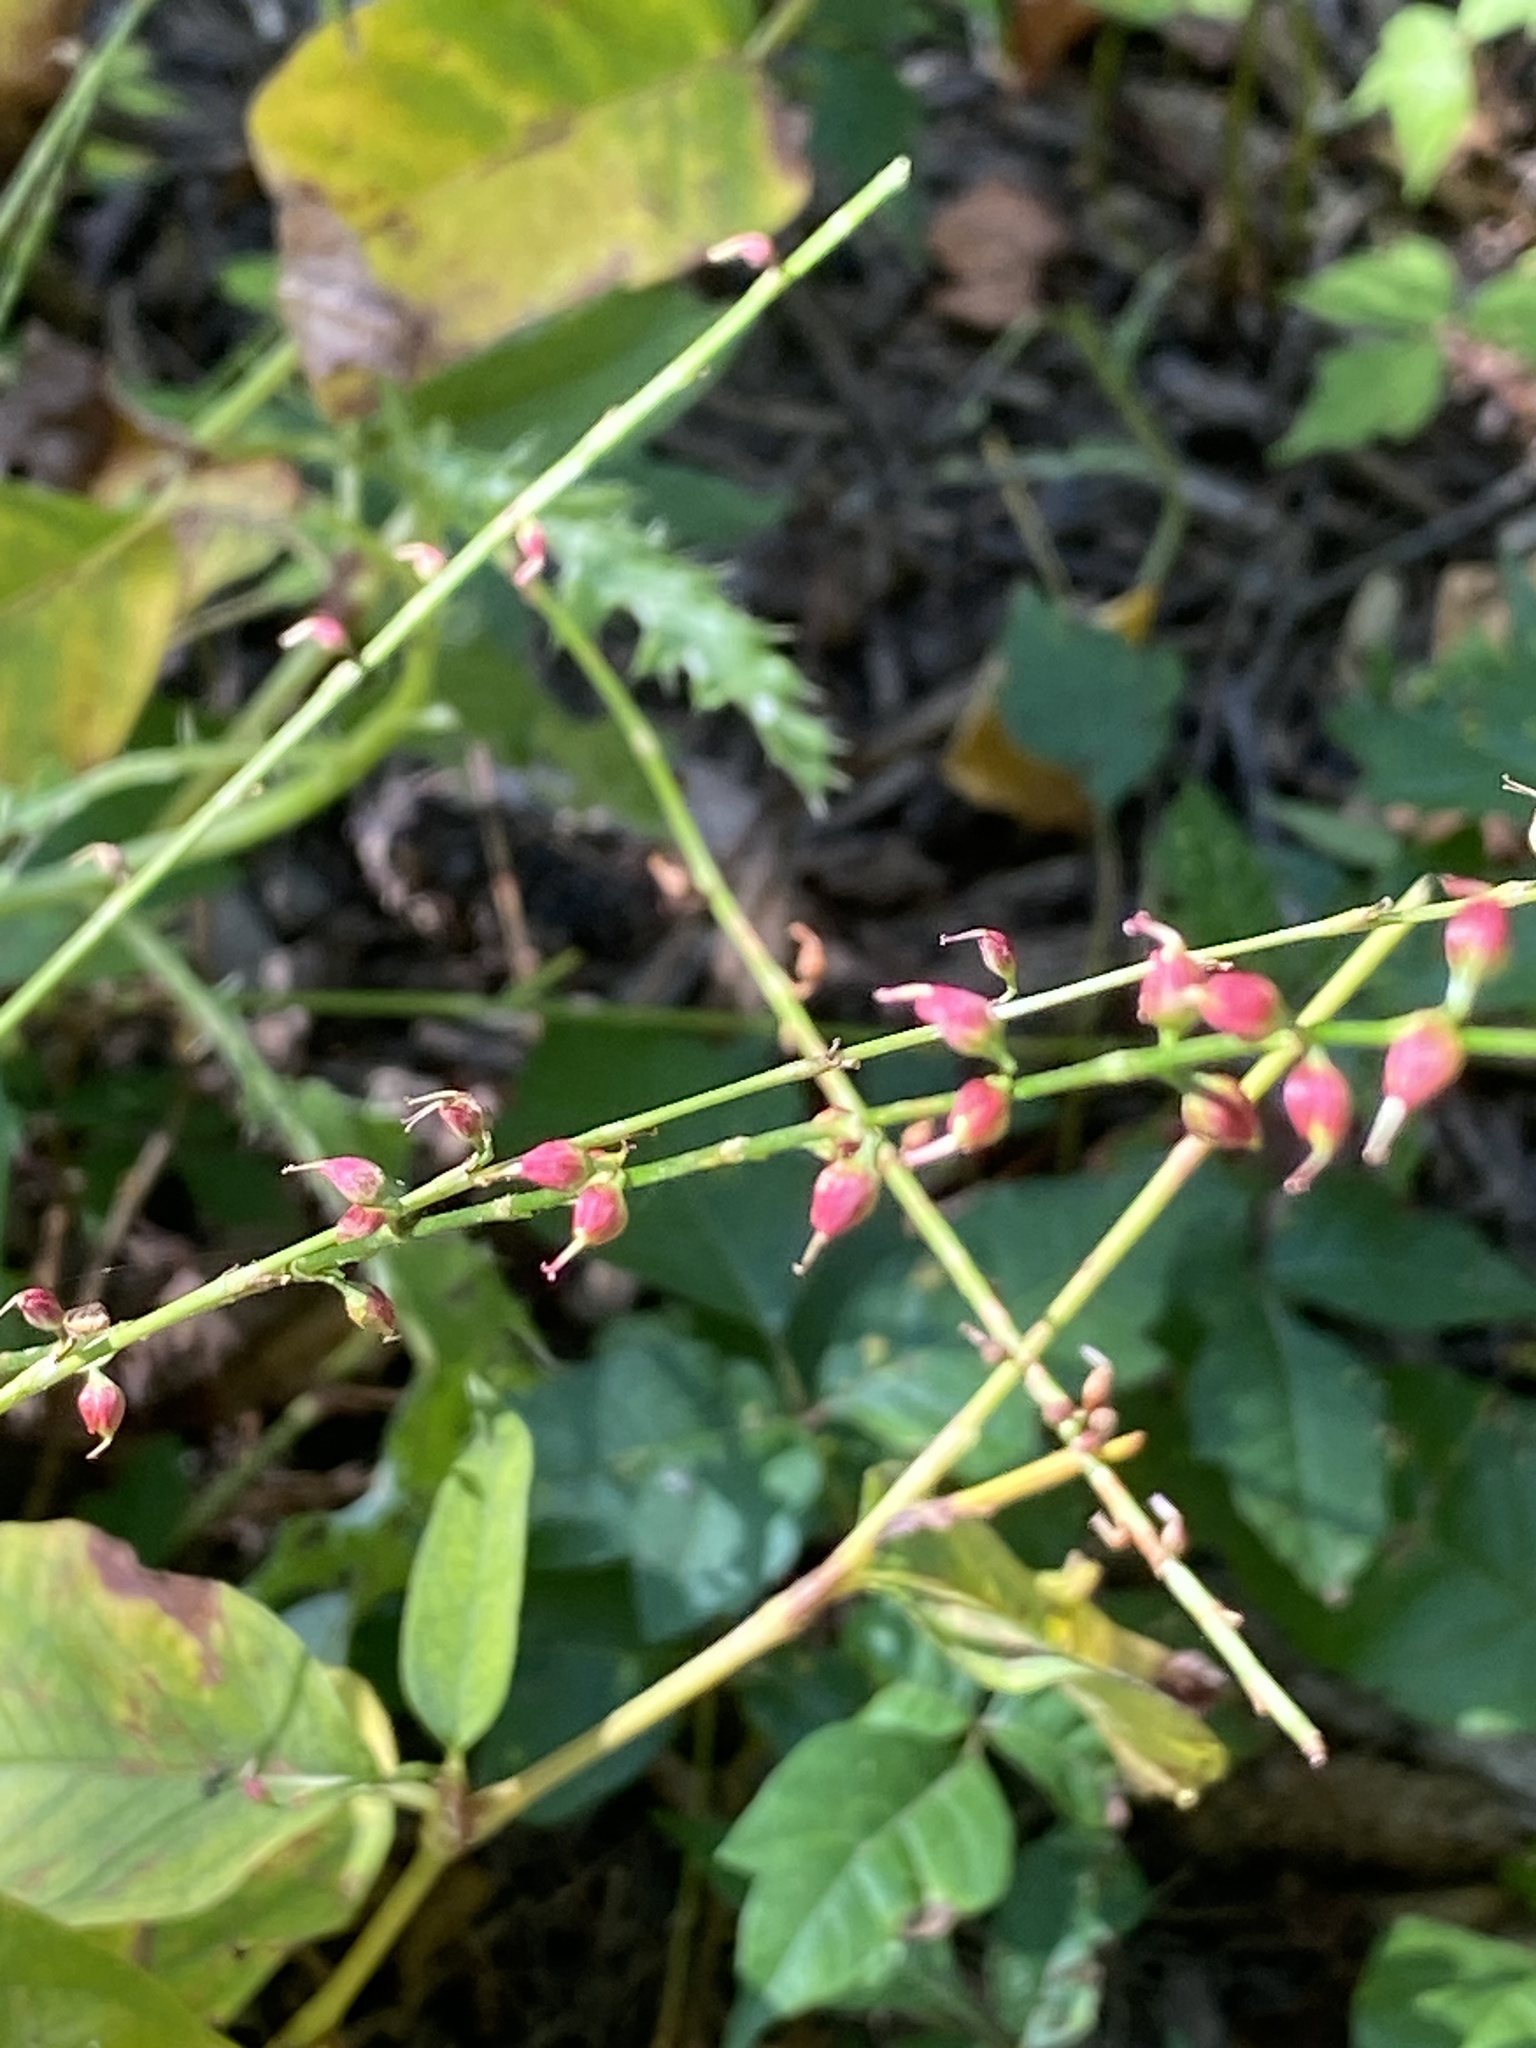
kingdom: Plantae
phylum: Tracheophyta
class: Magnoliopsida
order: Caryophyllales
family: Polygonaceae
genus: Persicaria
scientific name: Persicaria virginiana
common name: Jumpseed
